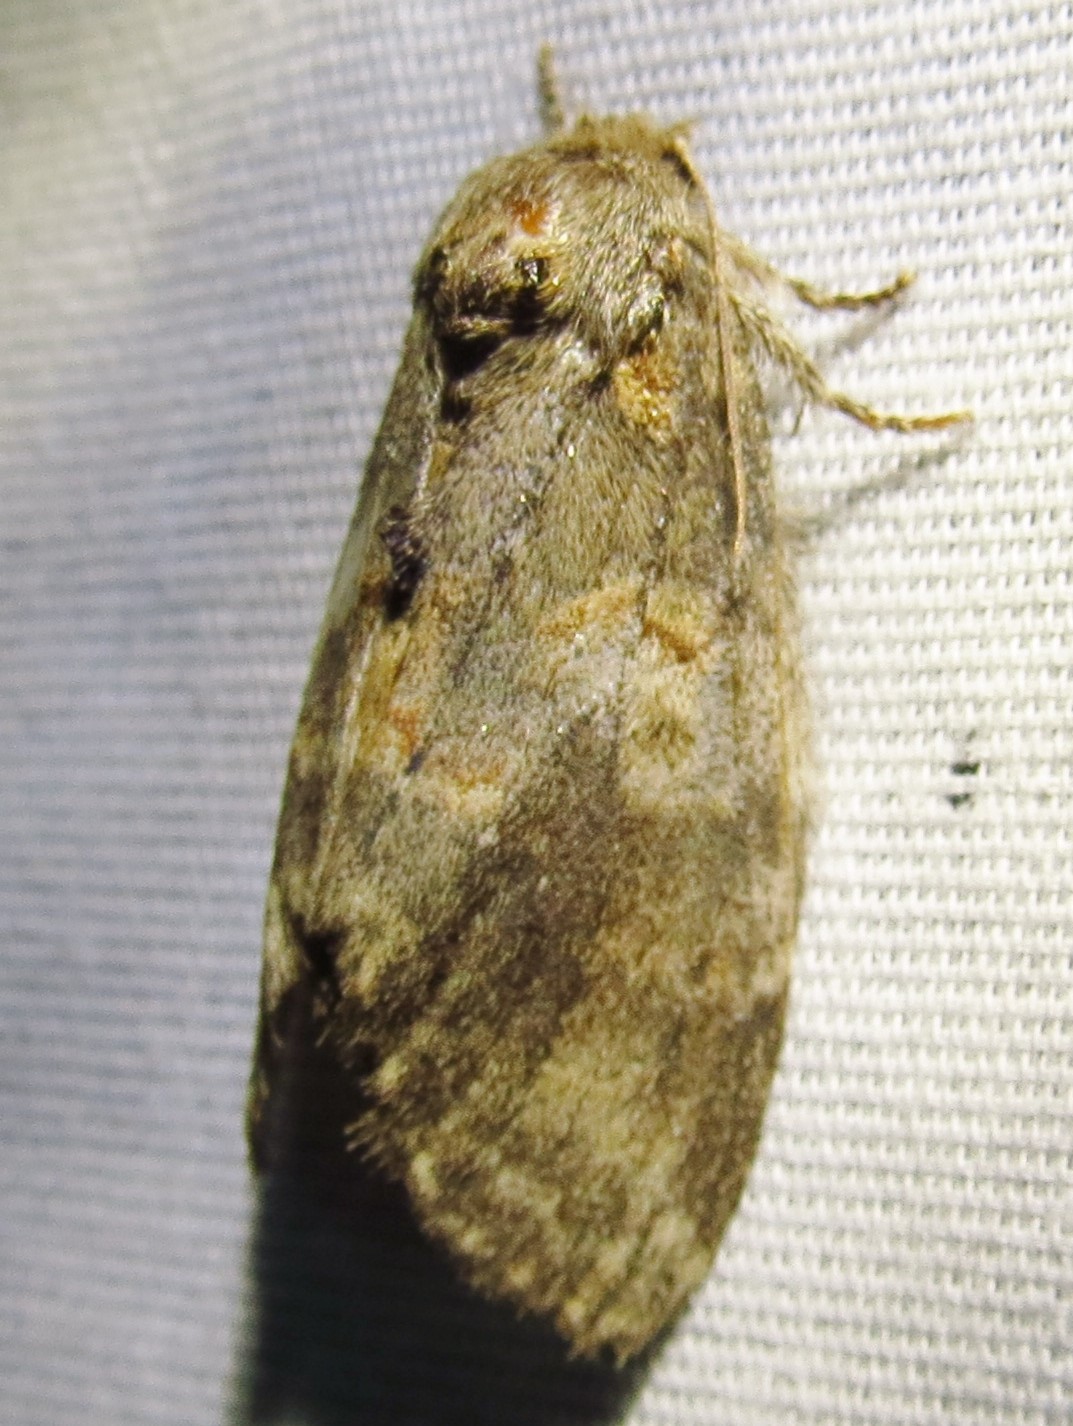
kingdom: Animalia
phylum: Arthropoda
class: Insecta
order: Lepidoptera
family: Notodontidae
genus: Peridea
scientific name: Peridea angulosa
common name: Angulose prominent
